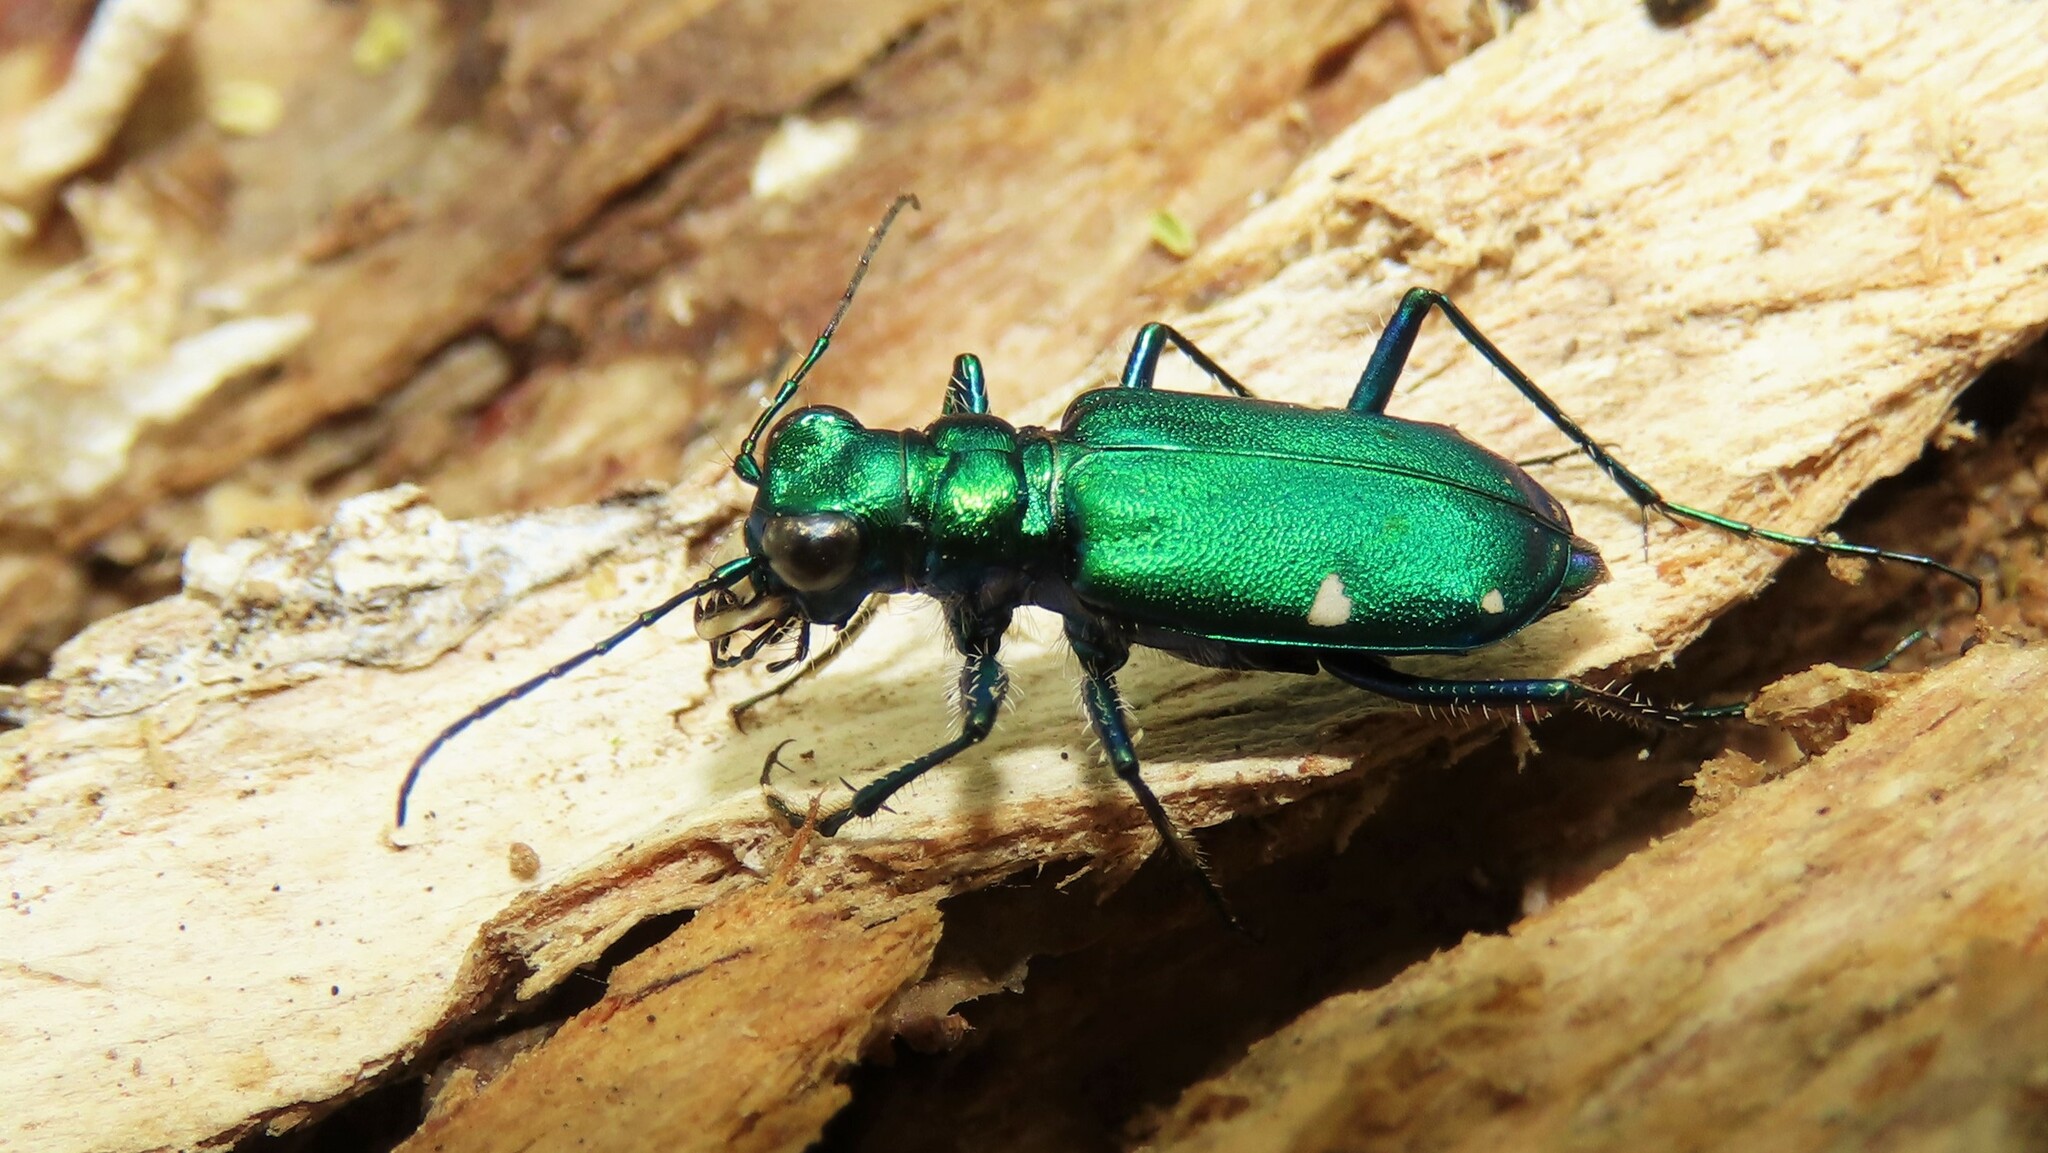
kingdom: Animalia
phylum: Arthropoda
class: Insecta
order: Coleoptera
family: Carabidae
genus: Cicindela
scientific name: Cicindela sexguttata
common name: Six-spotted tiger beetle
